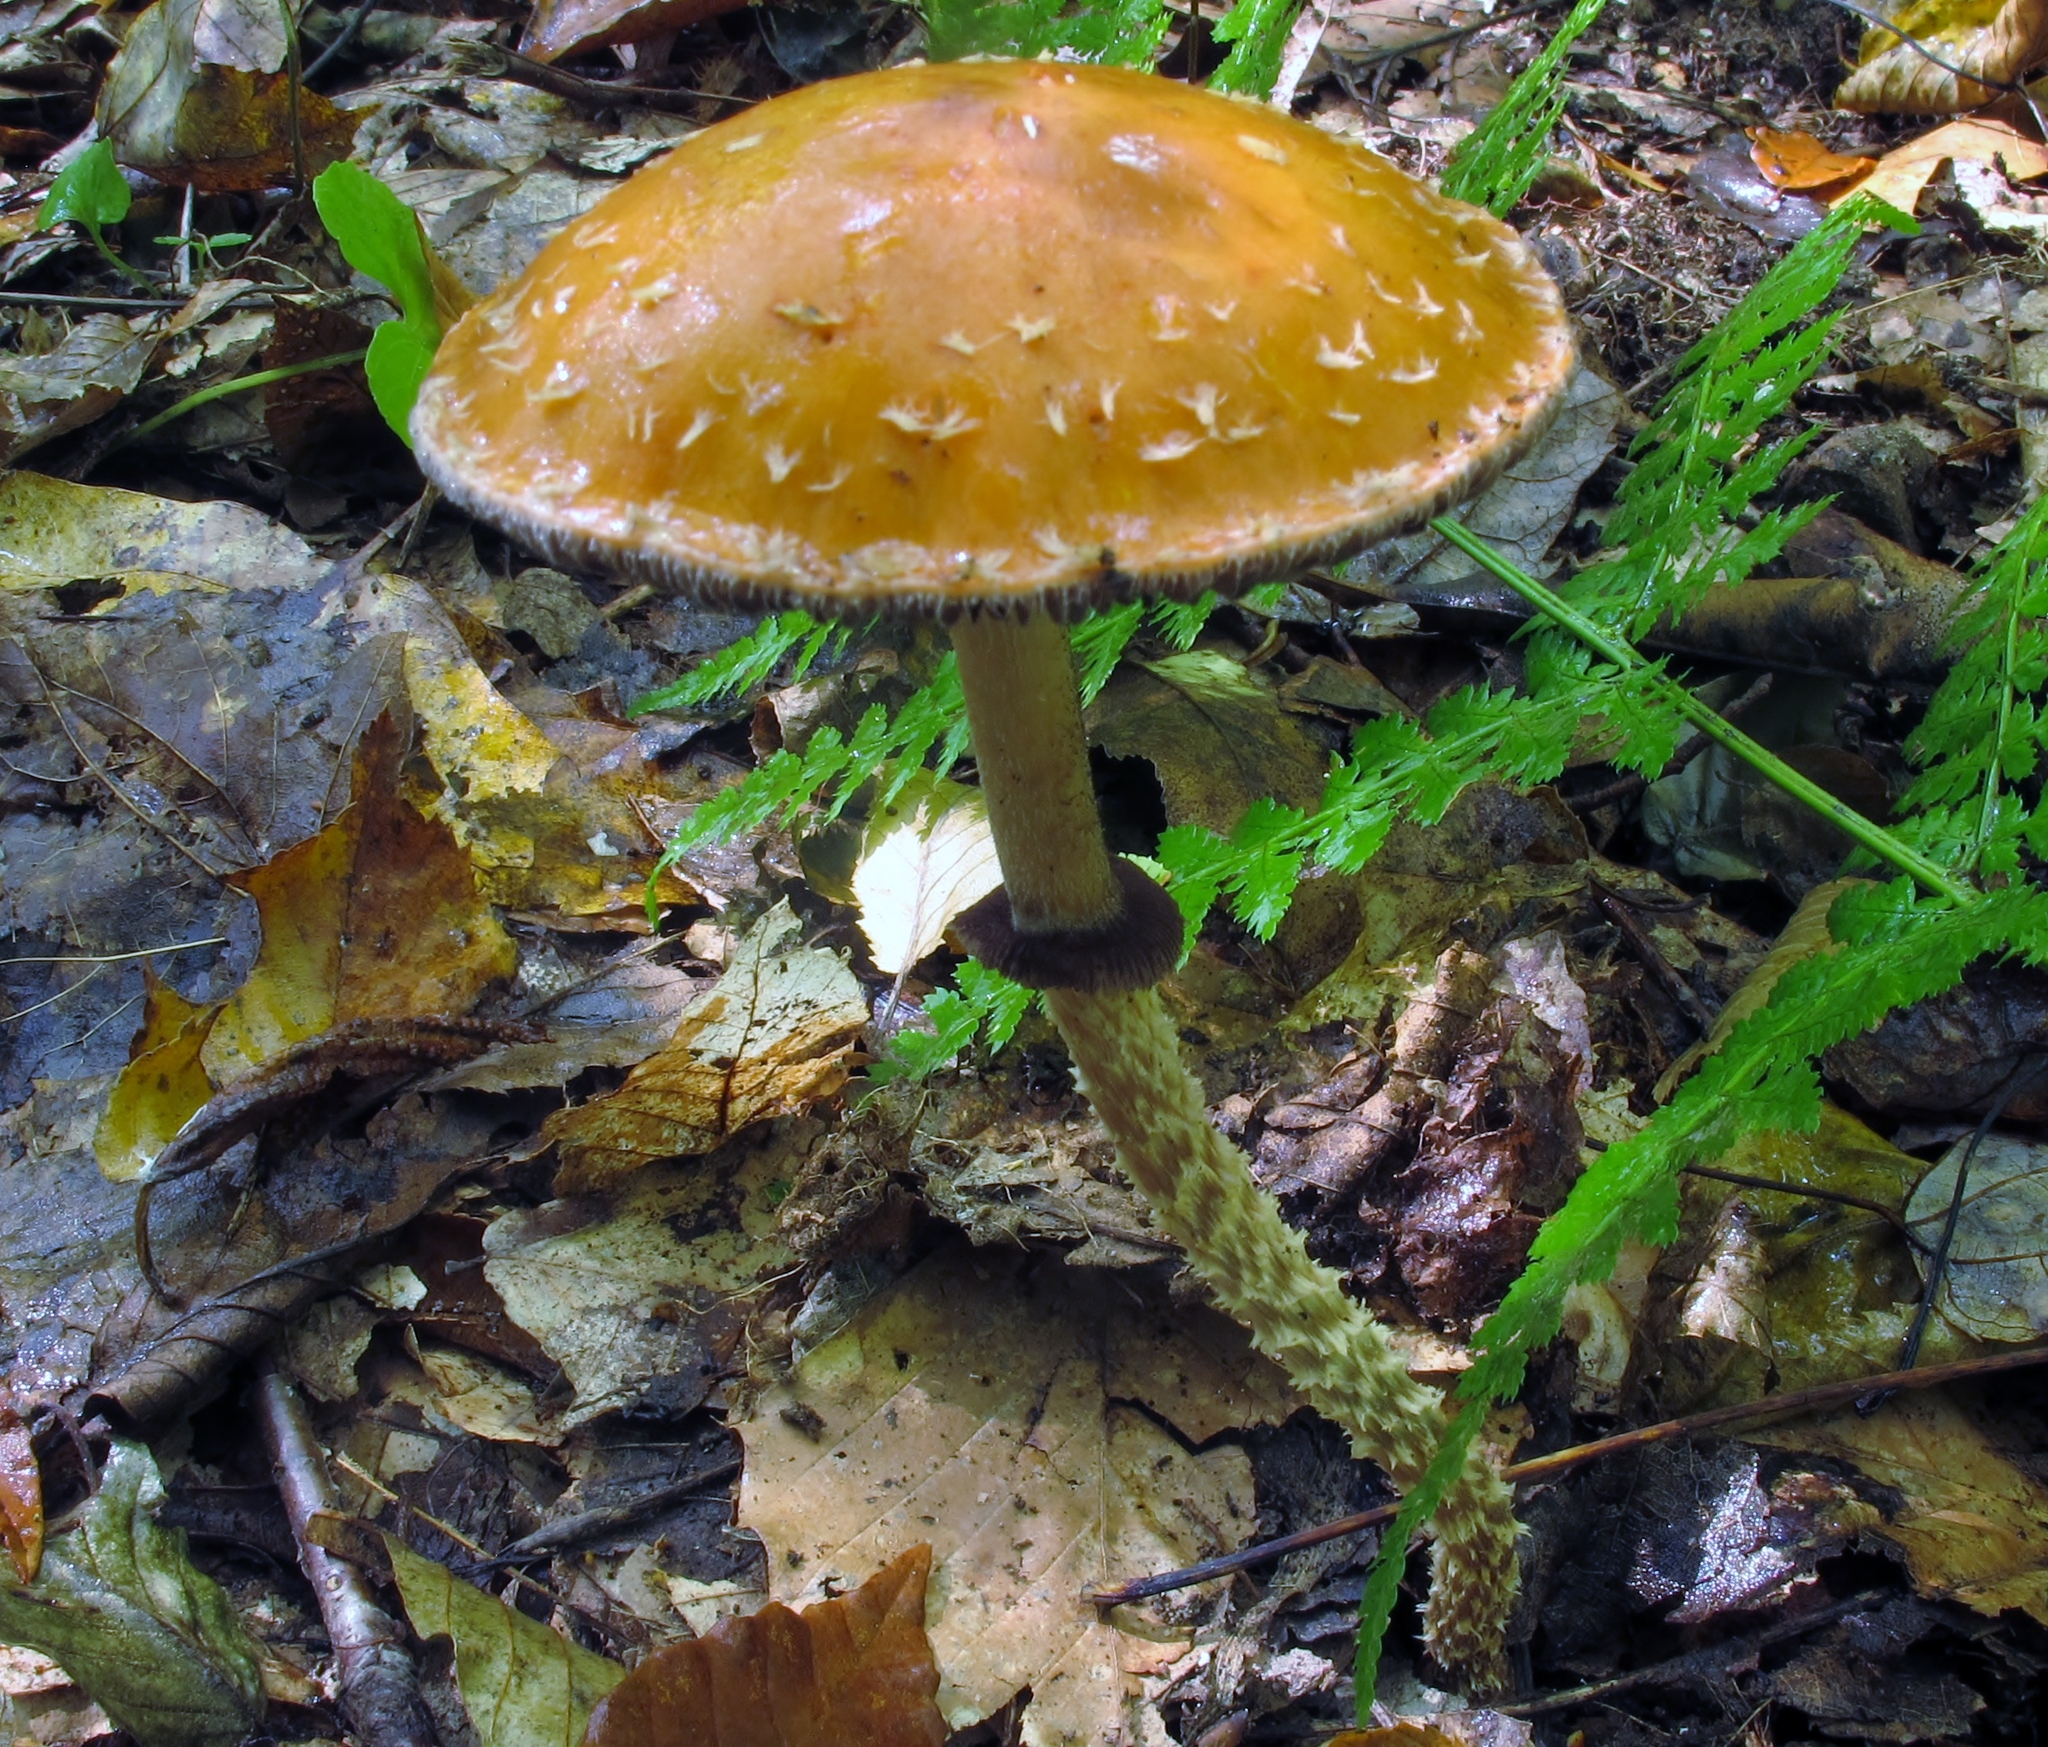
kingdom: Fungi
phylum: Basidiomycota
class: Agaricomycetes
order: Agaricales
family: Strophariaceae
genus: Leratiomyces
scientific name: Leratiomyces squamosus
